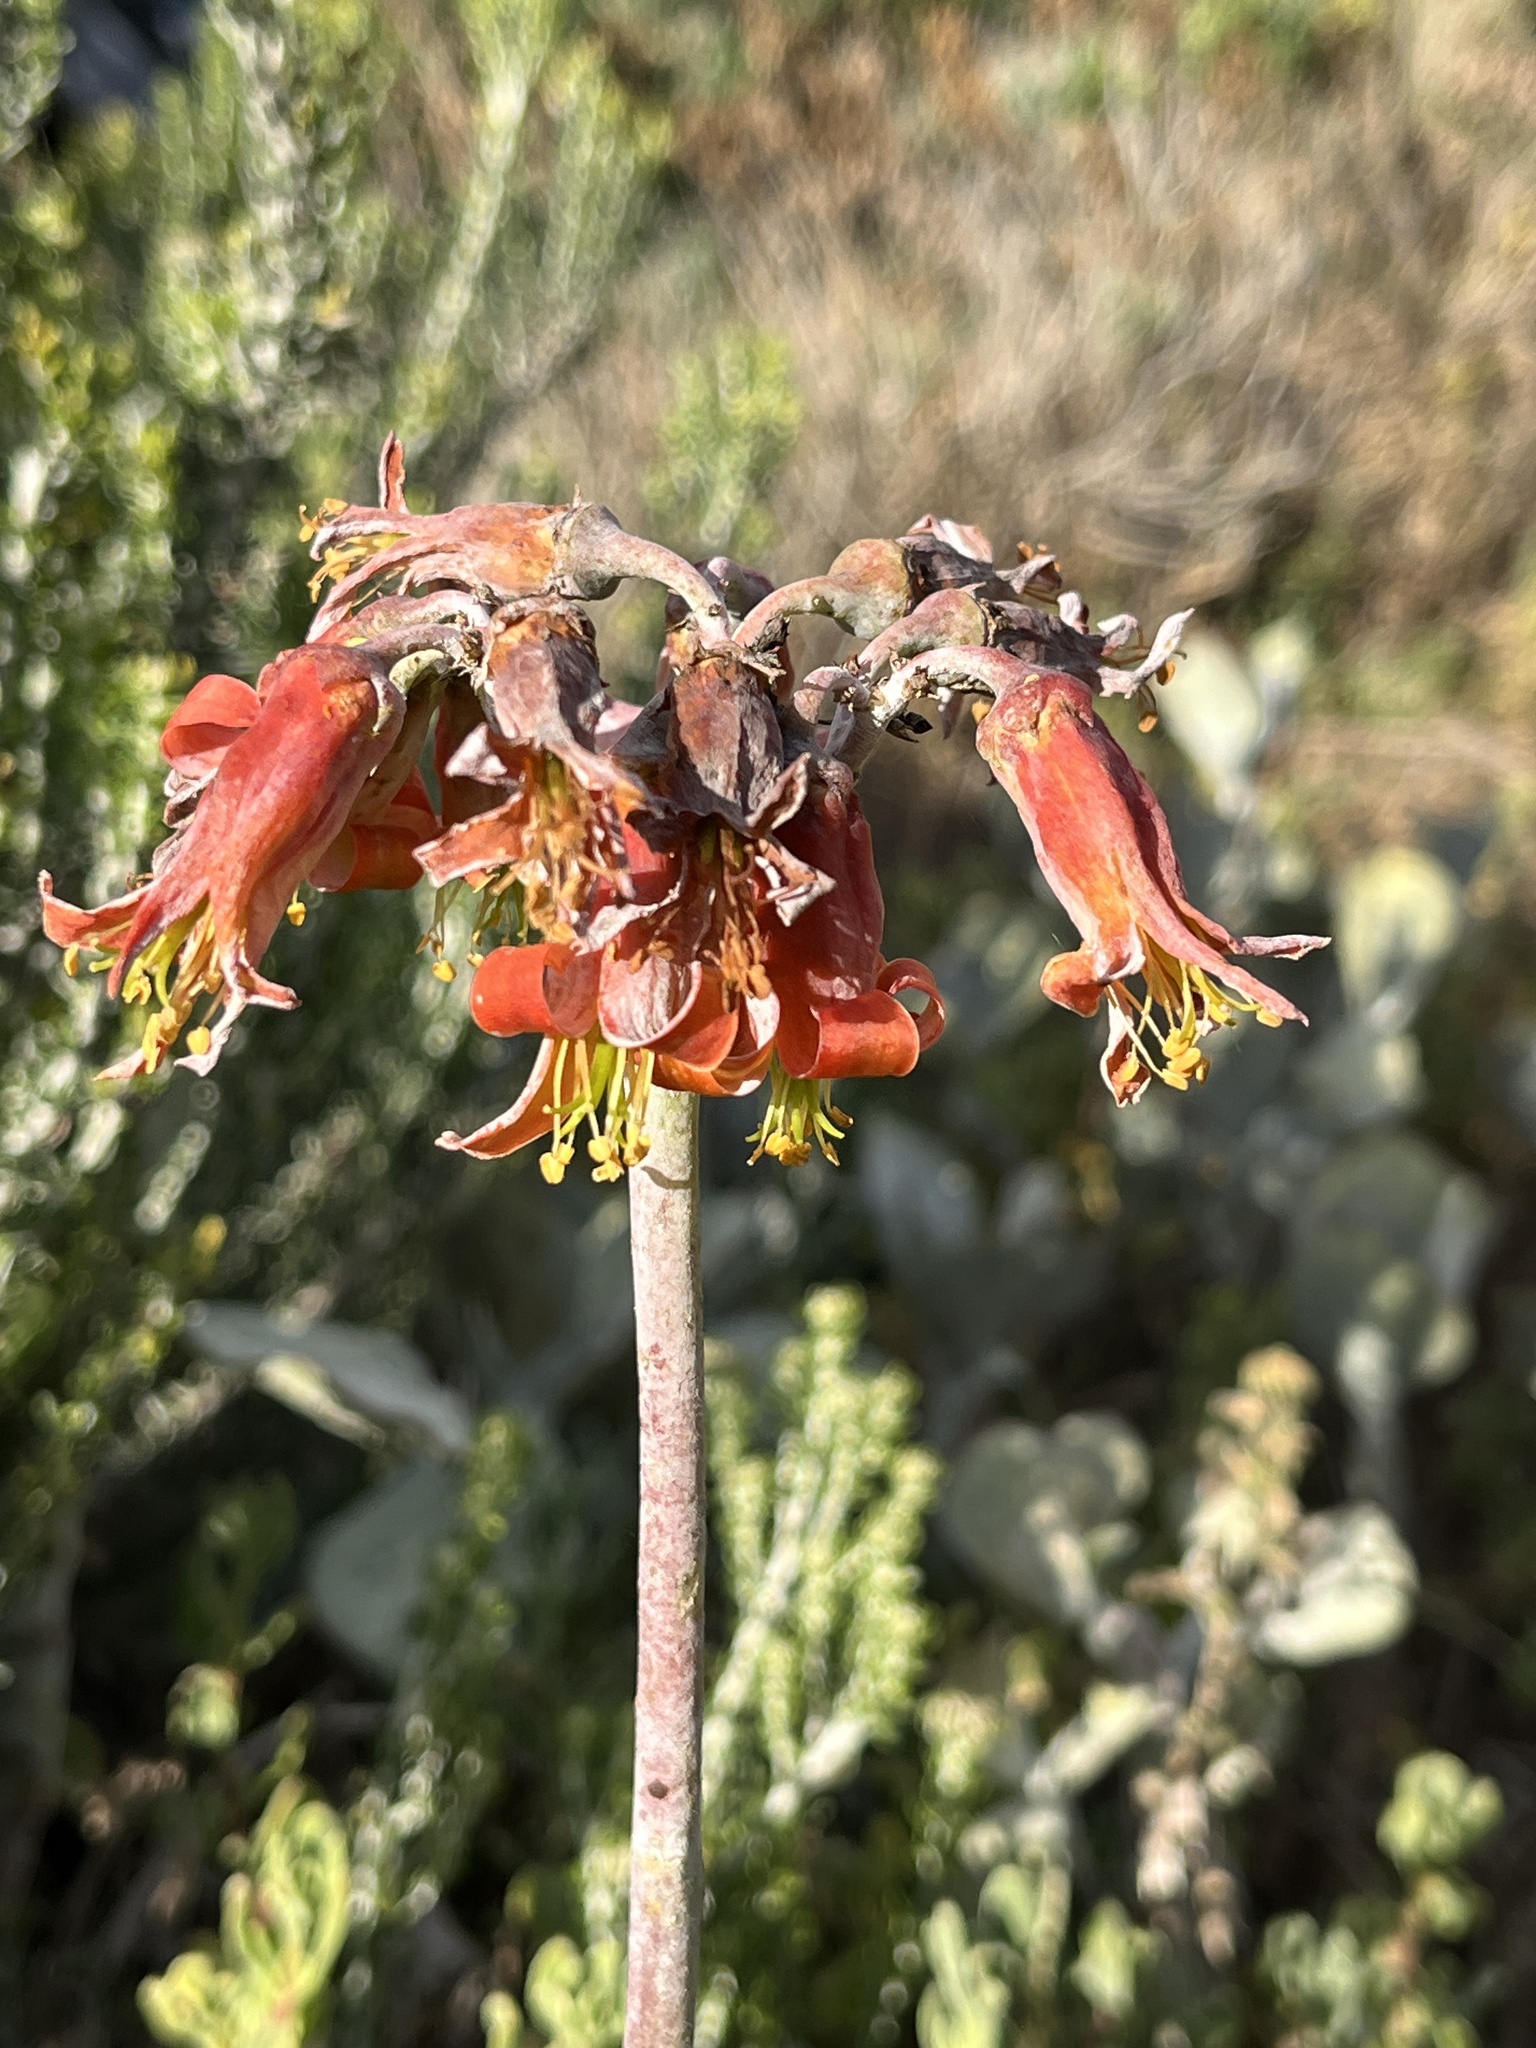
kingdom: Plantae
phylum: Tracheophyta
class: Magnoliopsida
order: Saxifragales
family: Crassulaceae
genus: Cotyledon
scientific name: Cotyledon orbiculata
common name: Pig's ear
